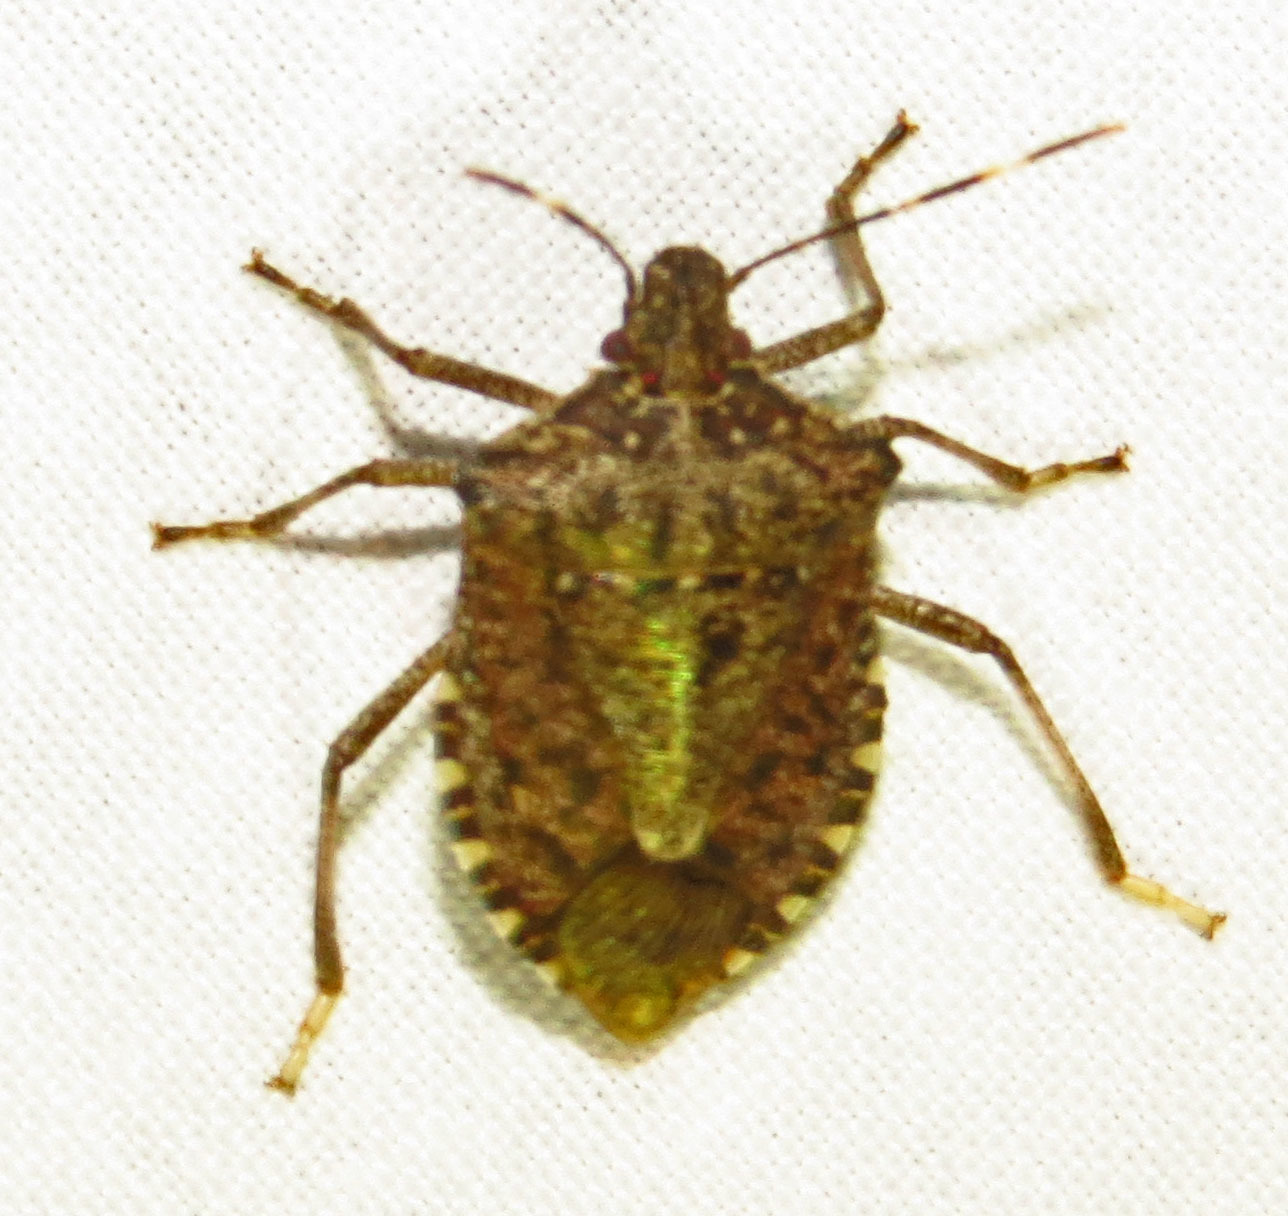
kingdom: Animalia
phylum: Arthropoda
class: Insecta
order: Hemiptera
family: Pentatomidae
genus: Halyomorpha
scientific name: Halyomorpha halys
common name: Brown marmorated stink bug
